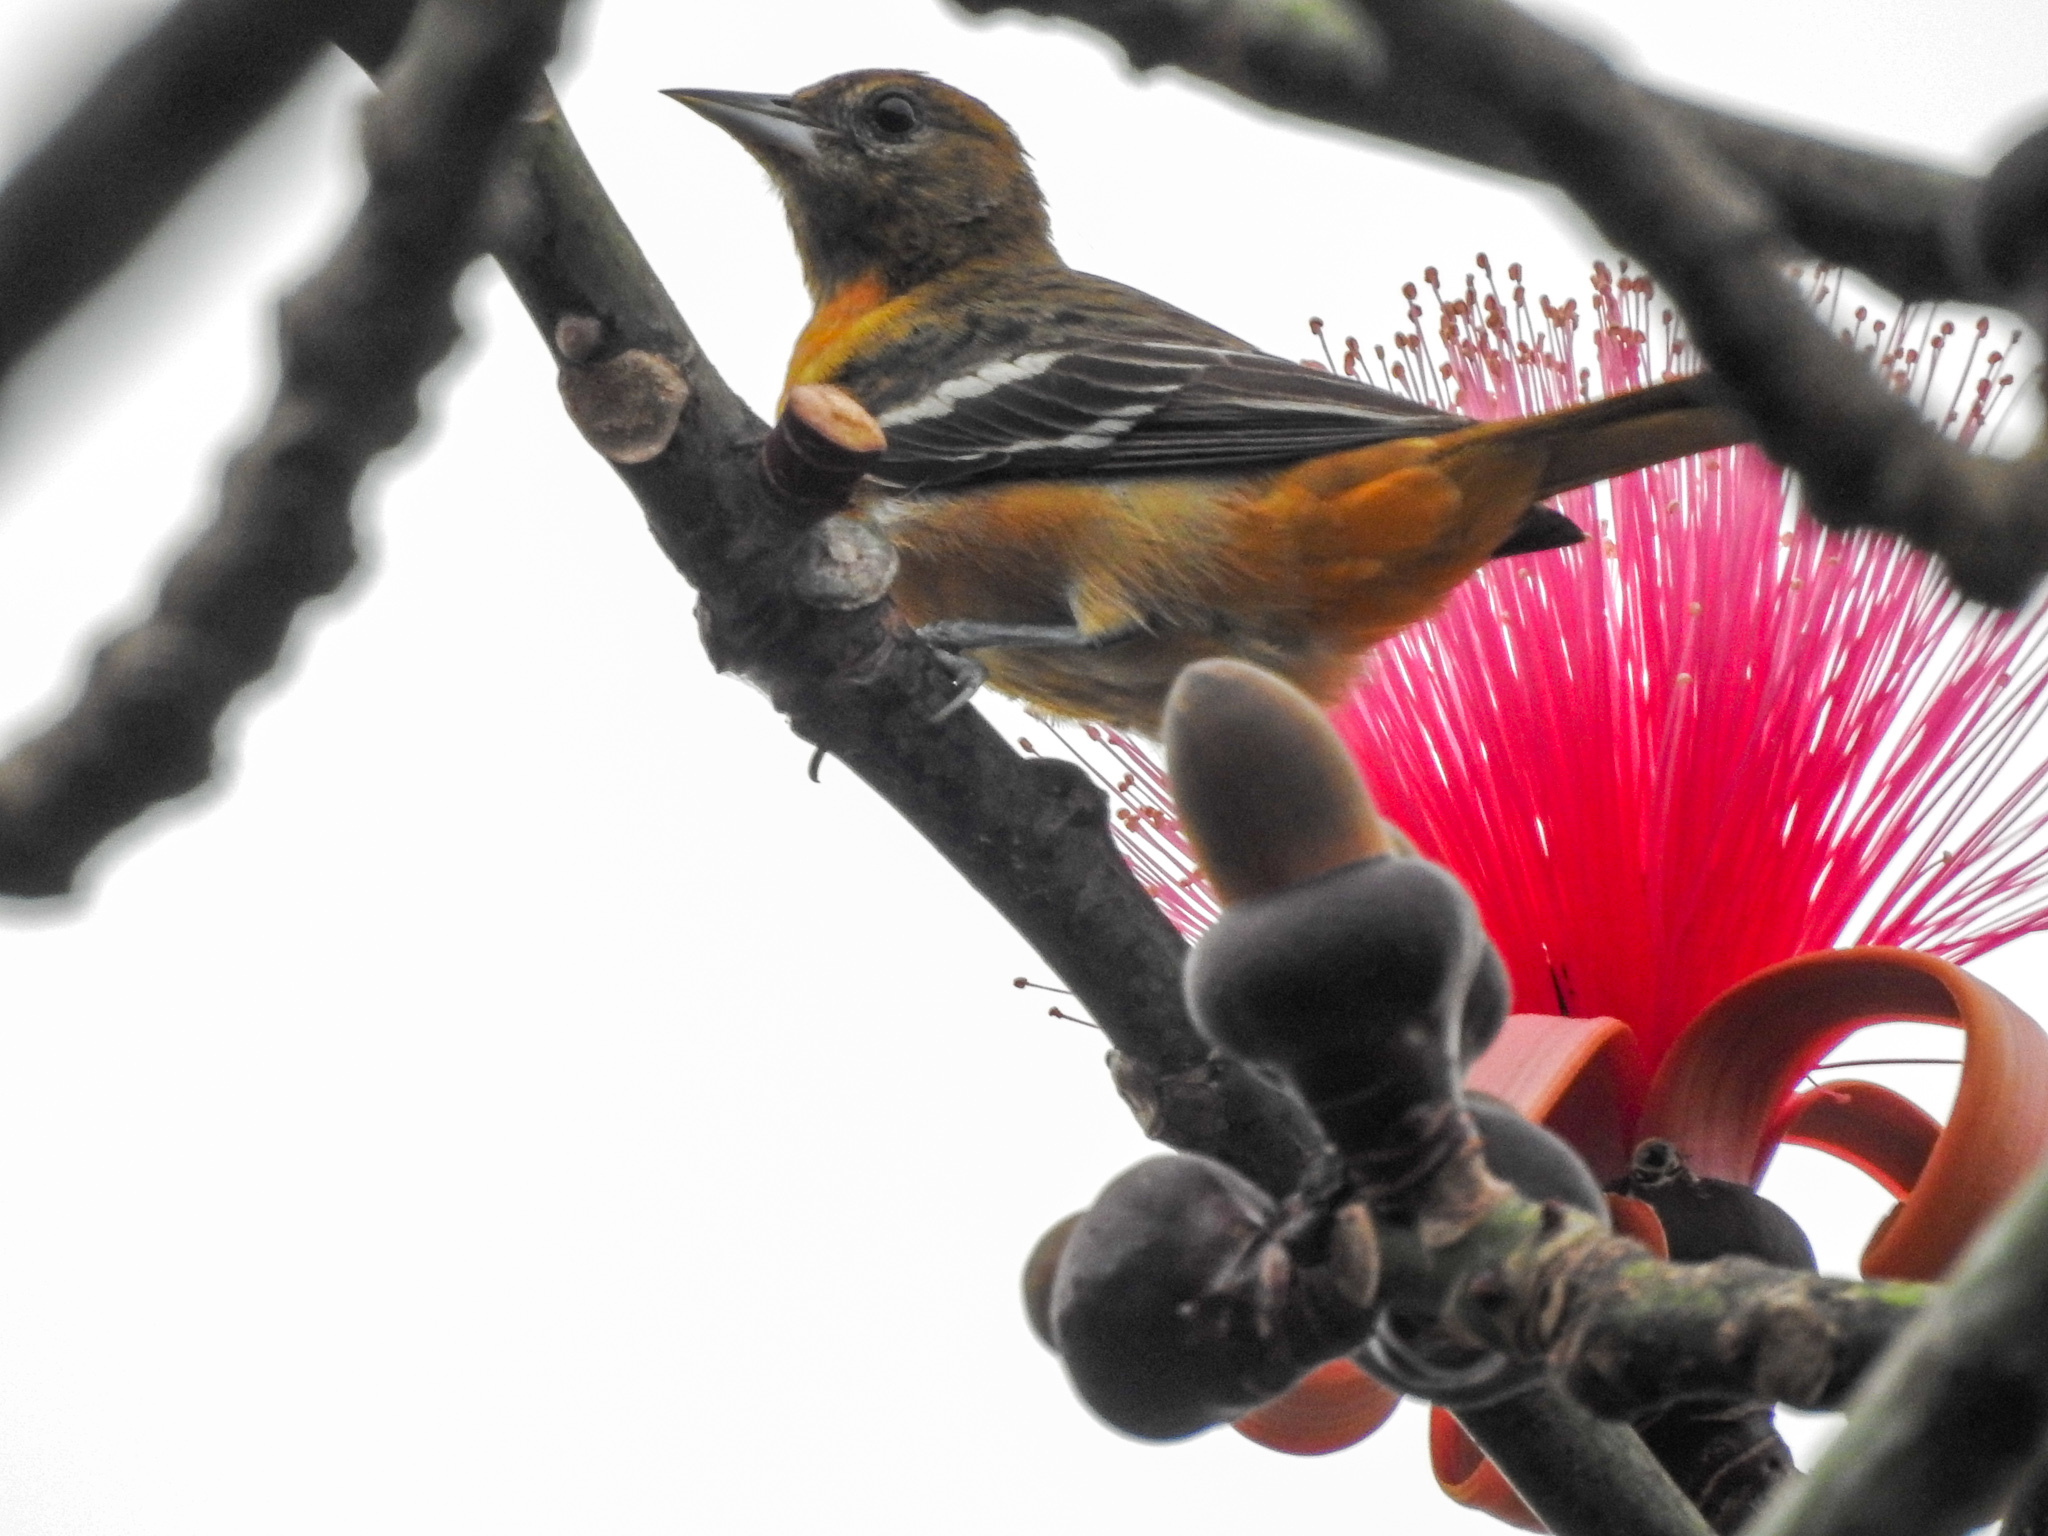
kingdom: Animalia
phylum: Chordata
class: Aves
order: Passeriformes
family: Icteridae
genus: Icterus
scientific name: Icterus galbula
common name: Baltimore oriole
